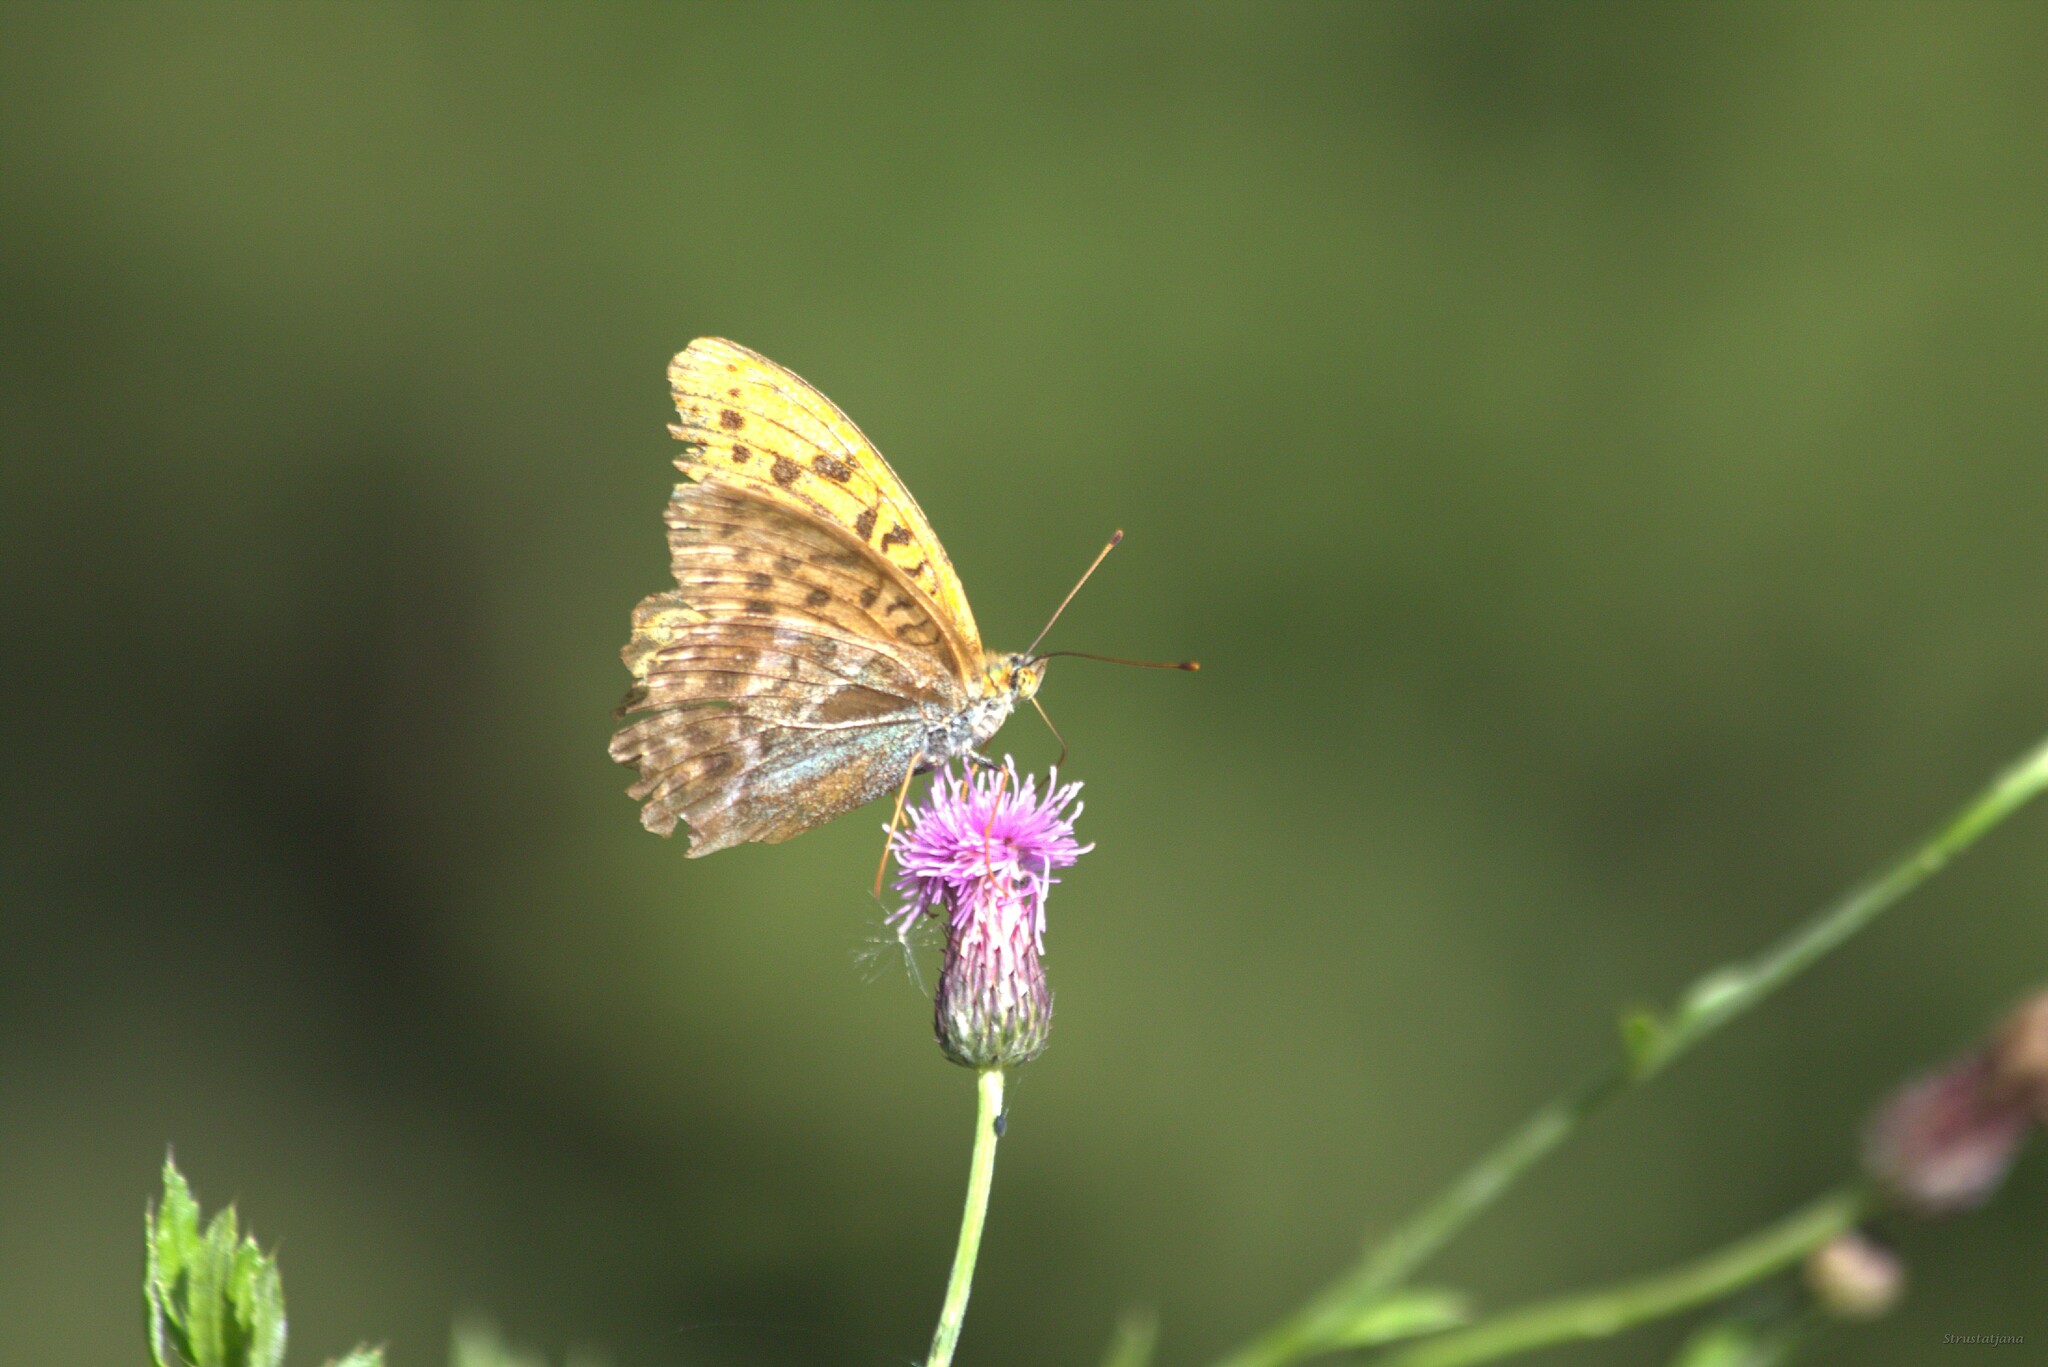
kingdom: Animalia
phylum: Arthropoda
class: Insecta
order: Lepidoptera
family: Nymphalidae
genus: Argynnis
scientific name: Argynnis paphia
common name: Silver-washed fritillary
